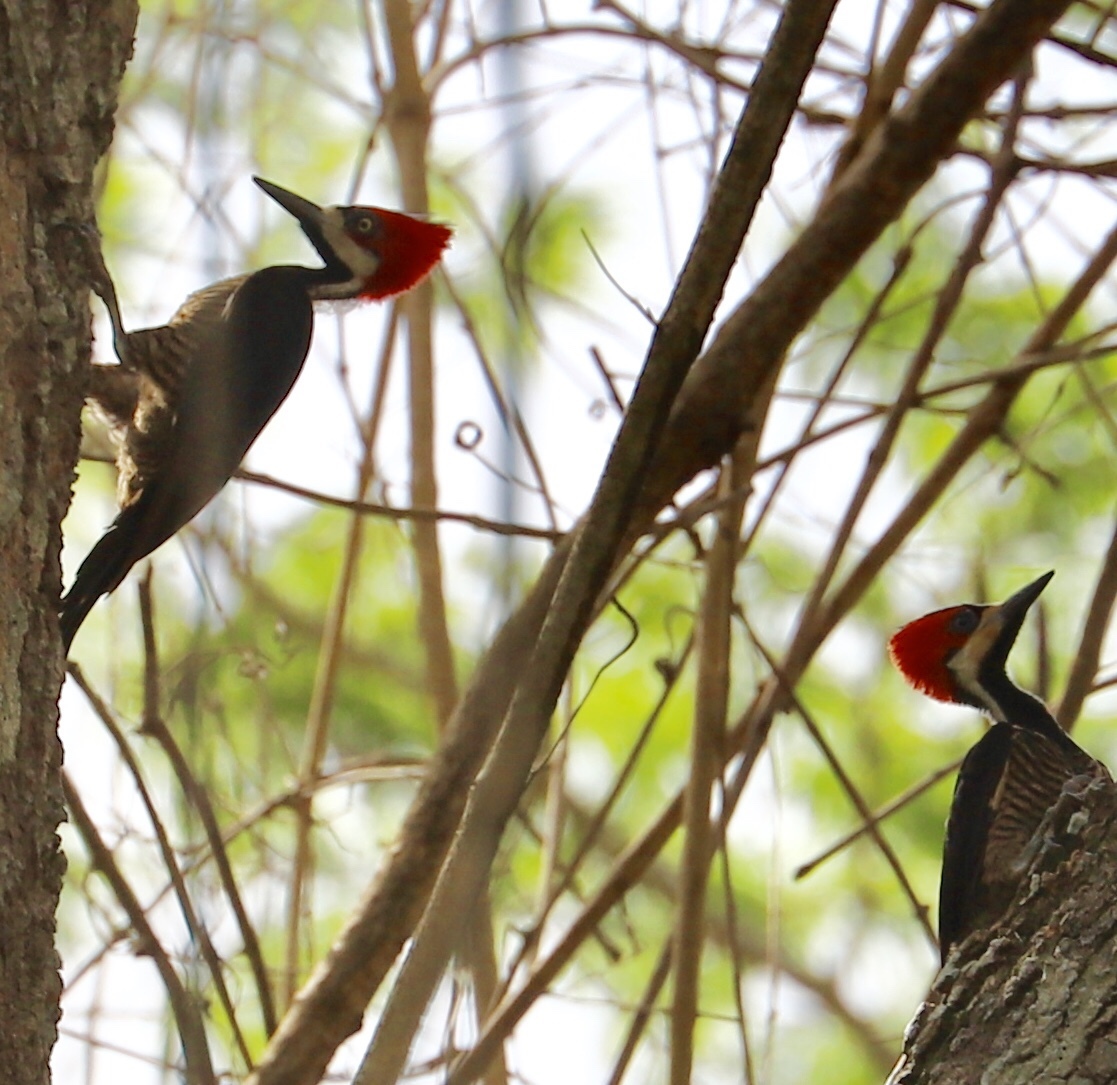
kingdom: Animalia
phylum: Chordata
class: Aves
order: Piciformes
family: Picidae
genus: Campephilus
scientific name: Campephilus melanoleucos
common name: Crimson-crested woodpecker
